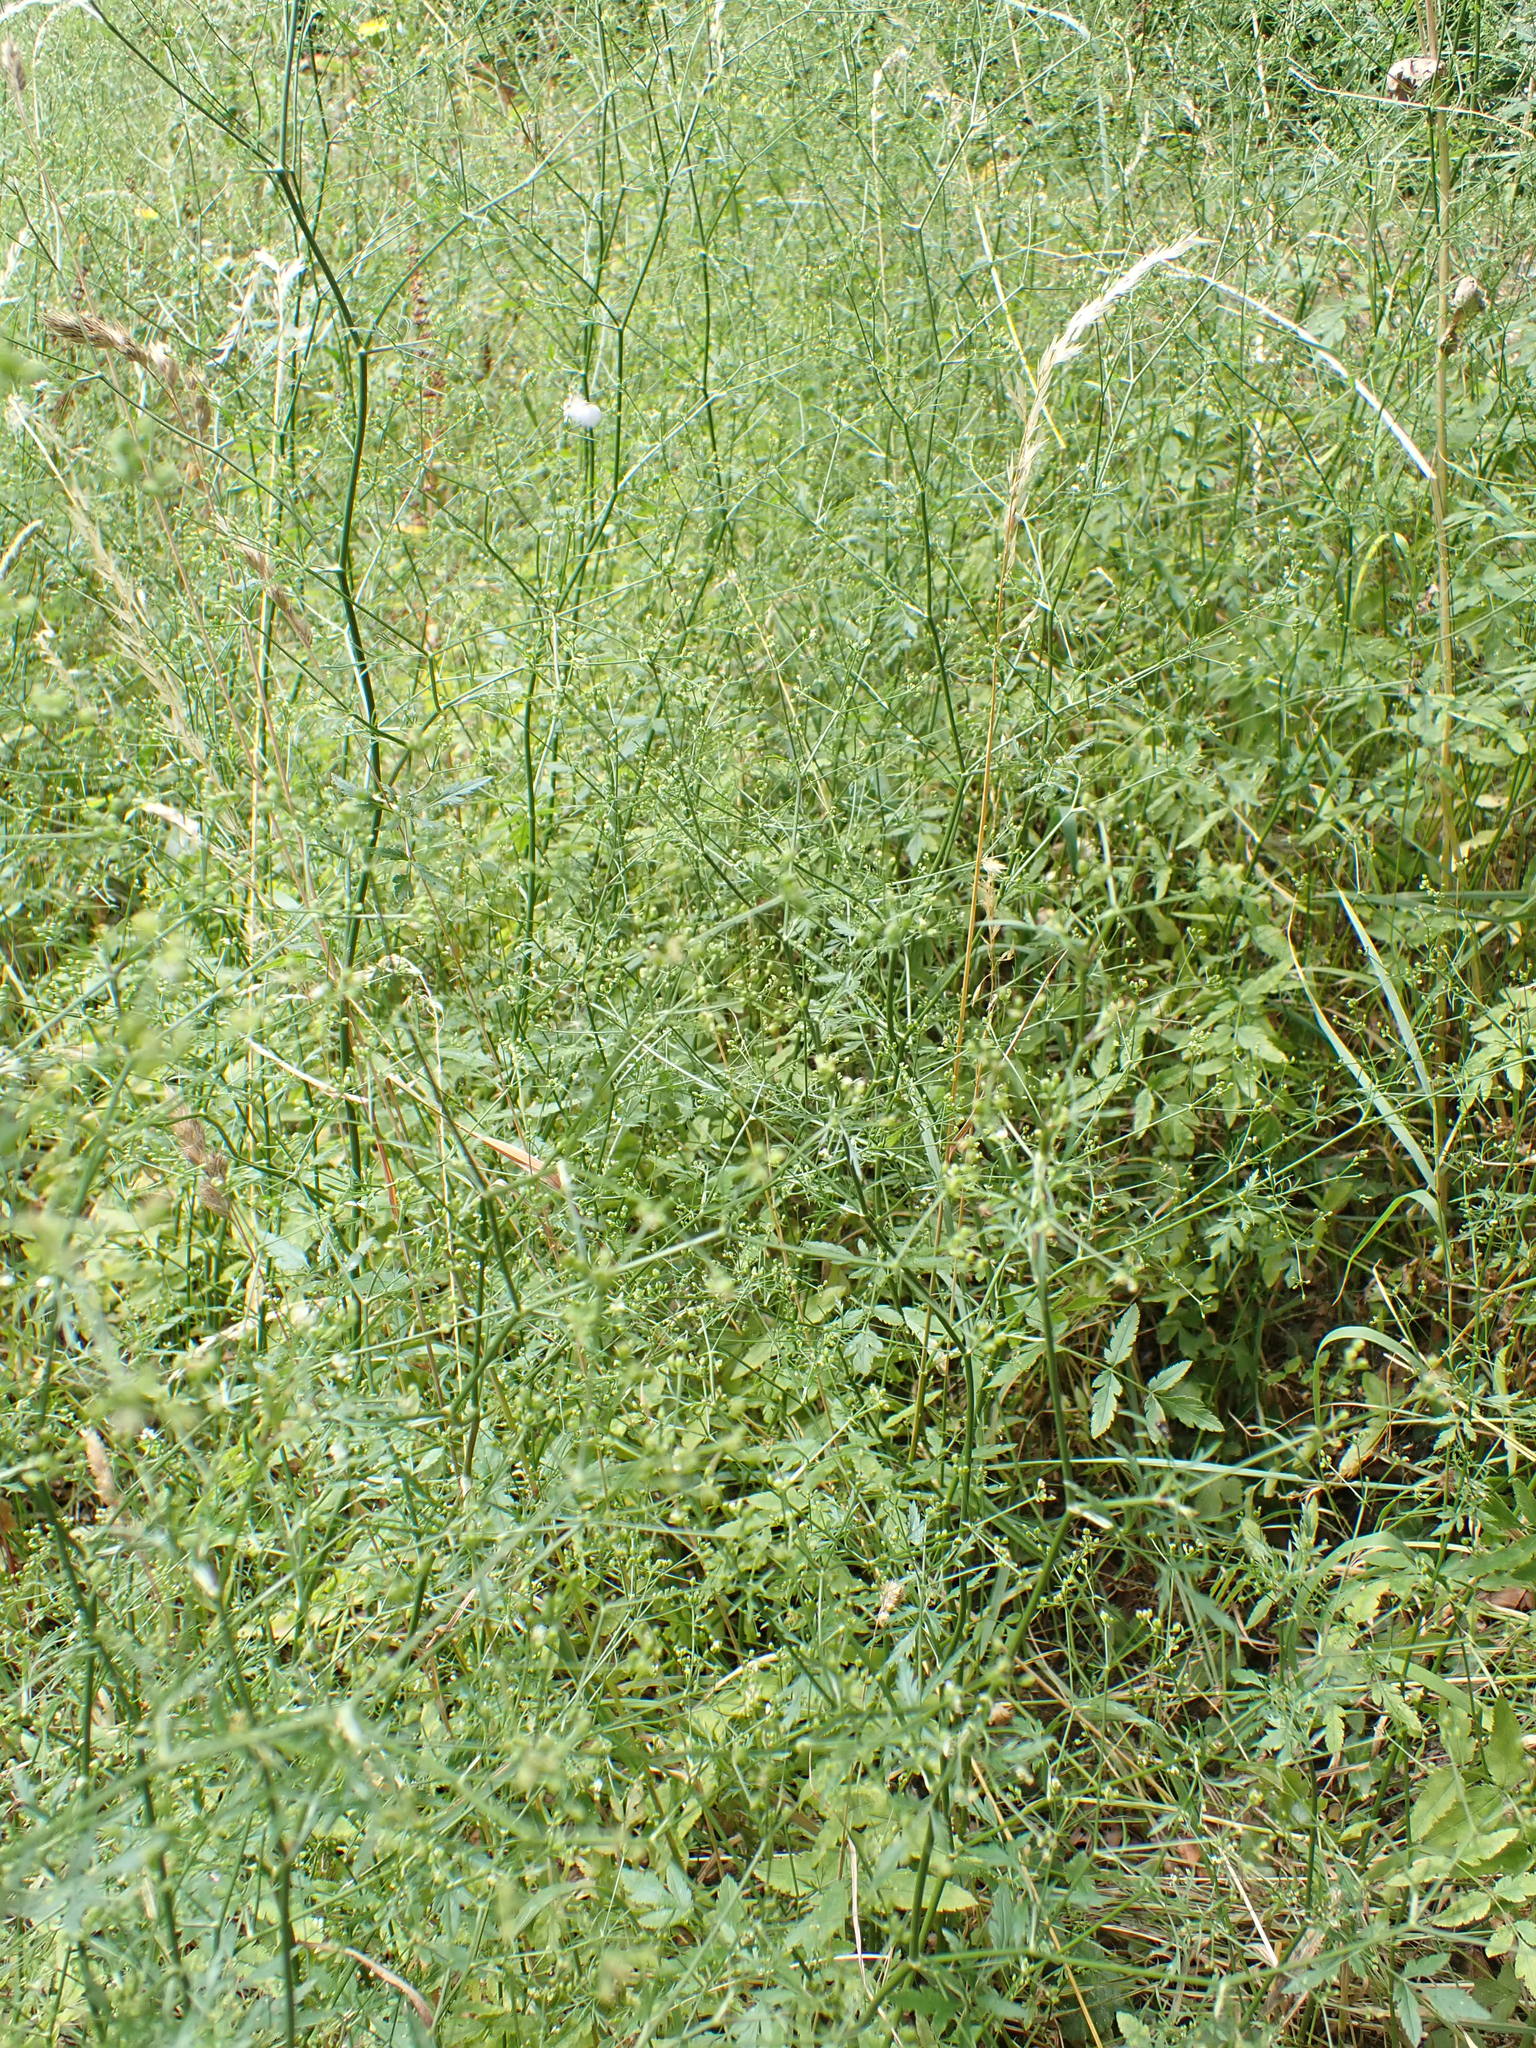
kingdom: Plantae
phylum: Tracheophyta
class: Magnoliopsida
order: Apiales
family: Apiaceae
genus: Sison
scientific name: Sison amomum
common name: Stone-parsley
